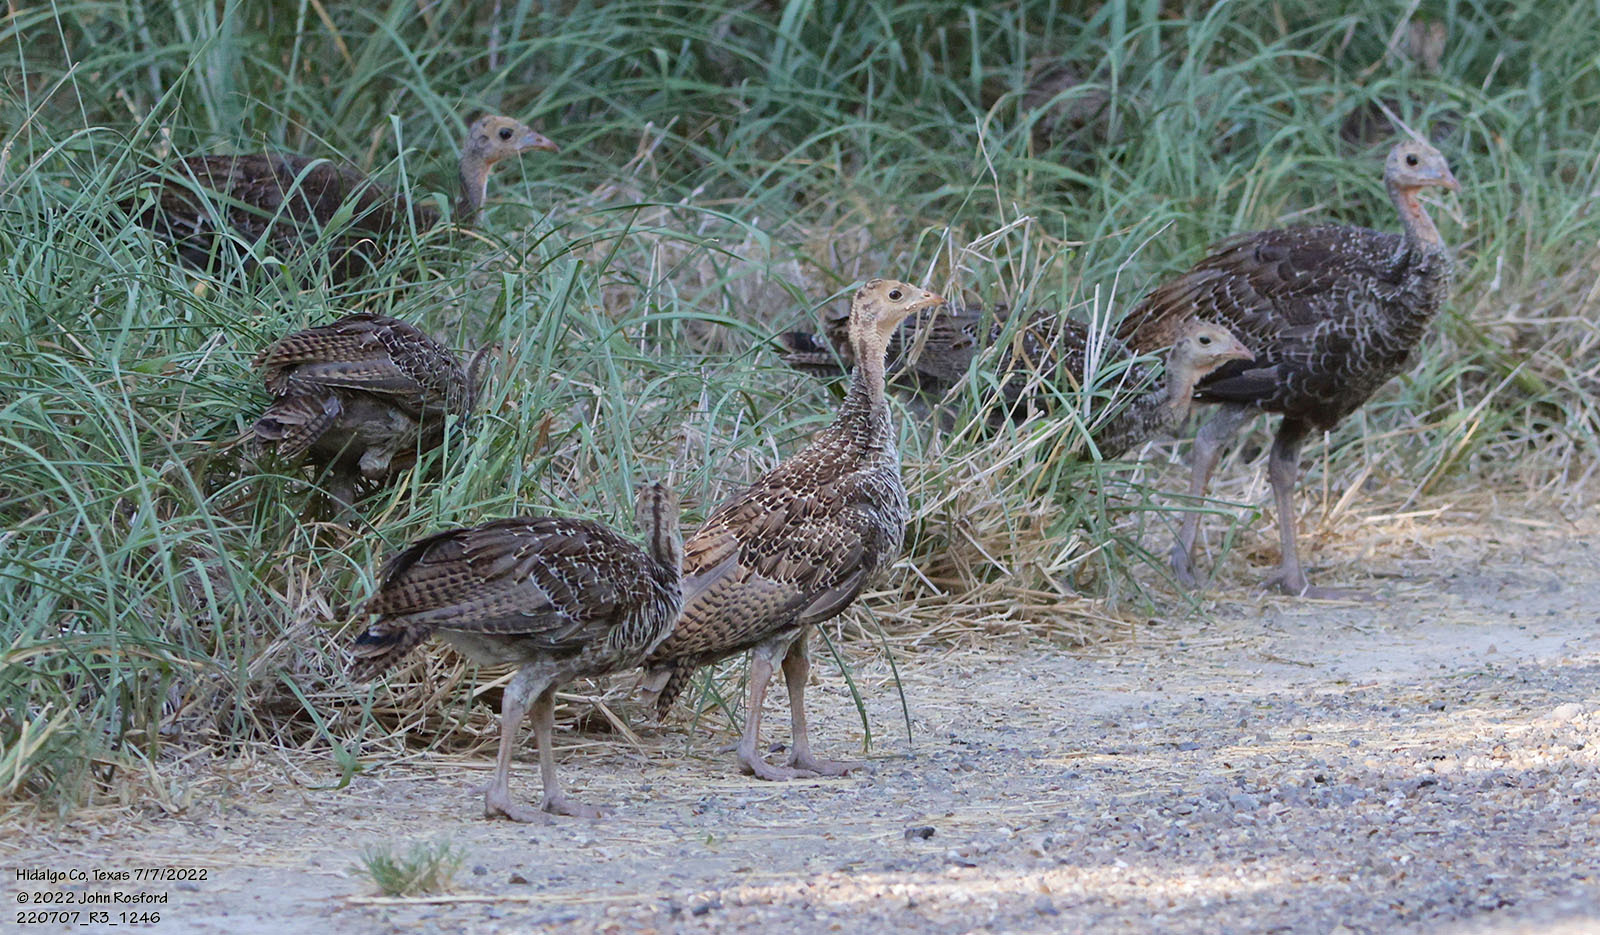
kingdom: Animalia
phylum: Chordata
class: Aves
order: Galliformes
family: Phasianidae
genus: Meleagris
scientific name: Meleagris gallopavo
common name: Wild turkey
